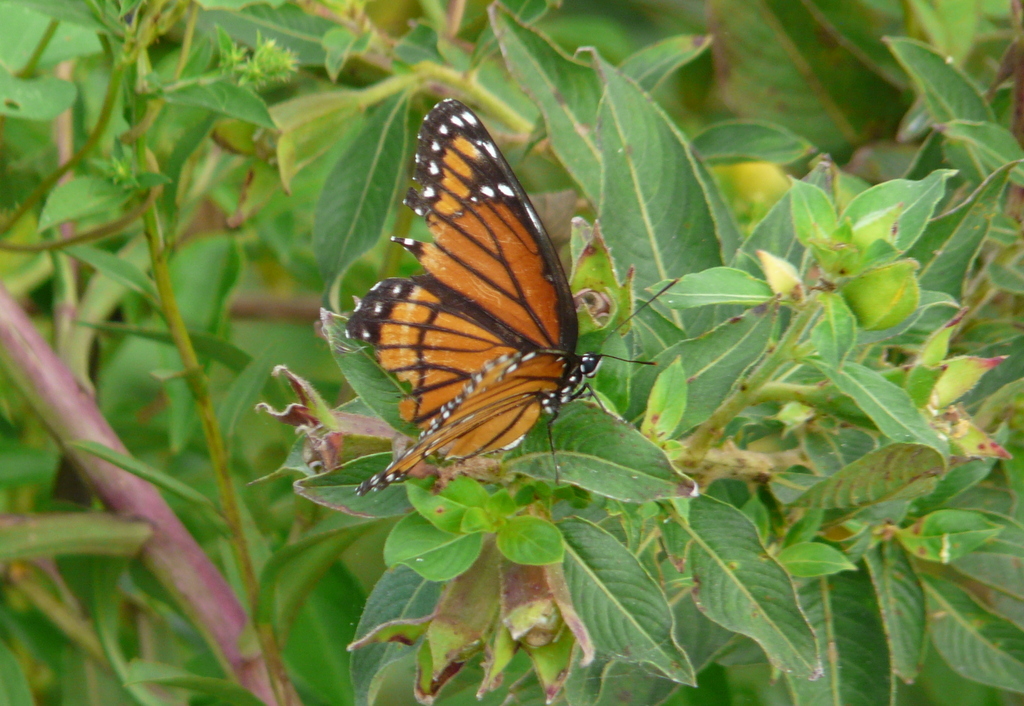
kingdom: Animalia
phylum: Arthropoda
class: Insecta
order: Lepidoptera
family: Nymphalidae
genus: Limenitis
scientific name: Limenitis archippus
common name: Viceroy
